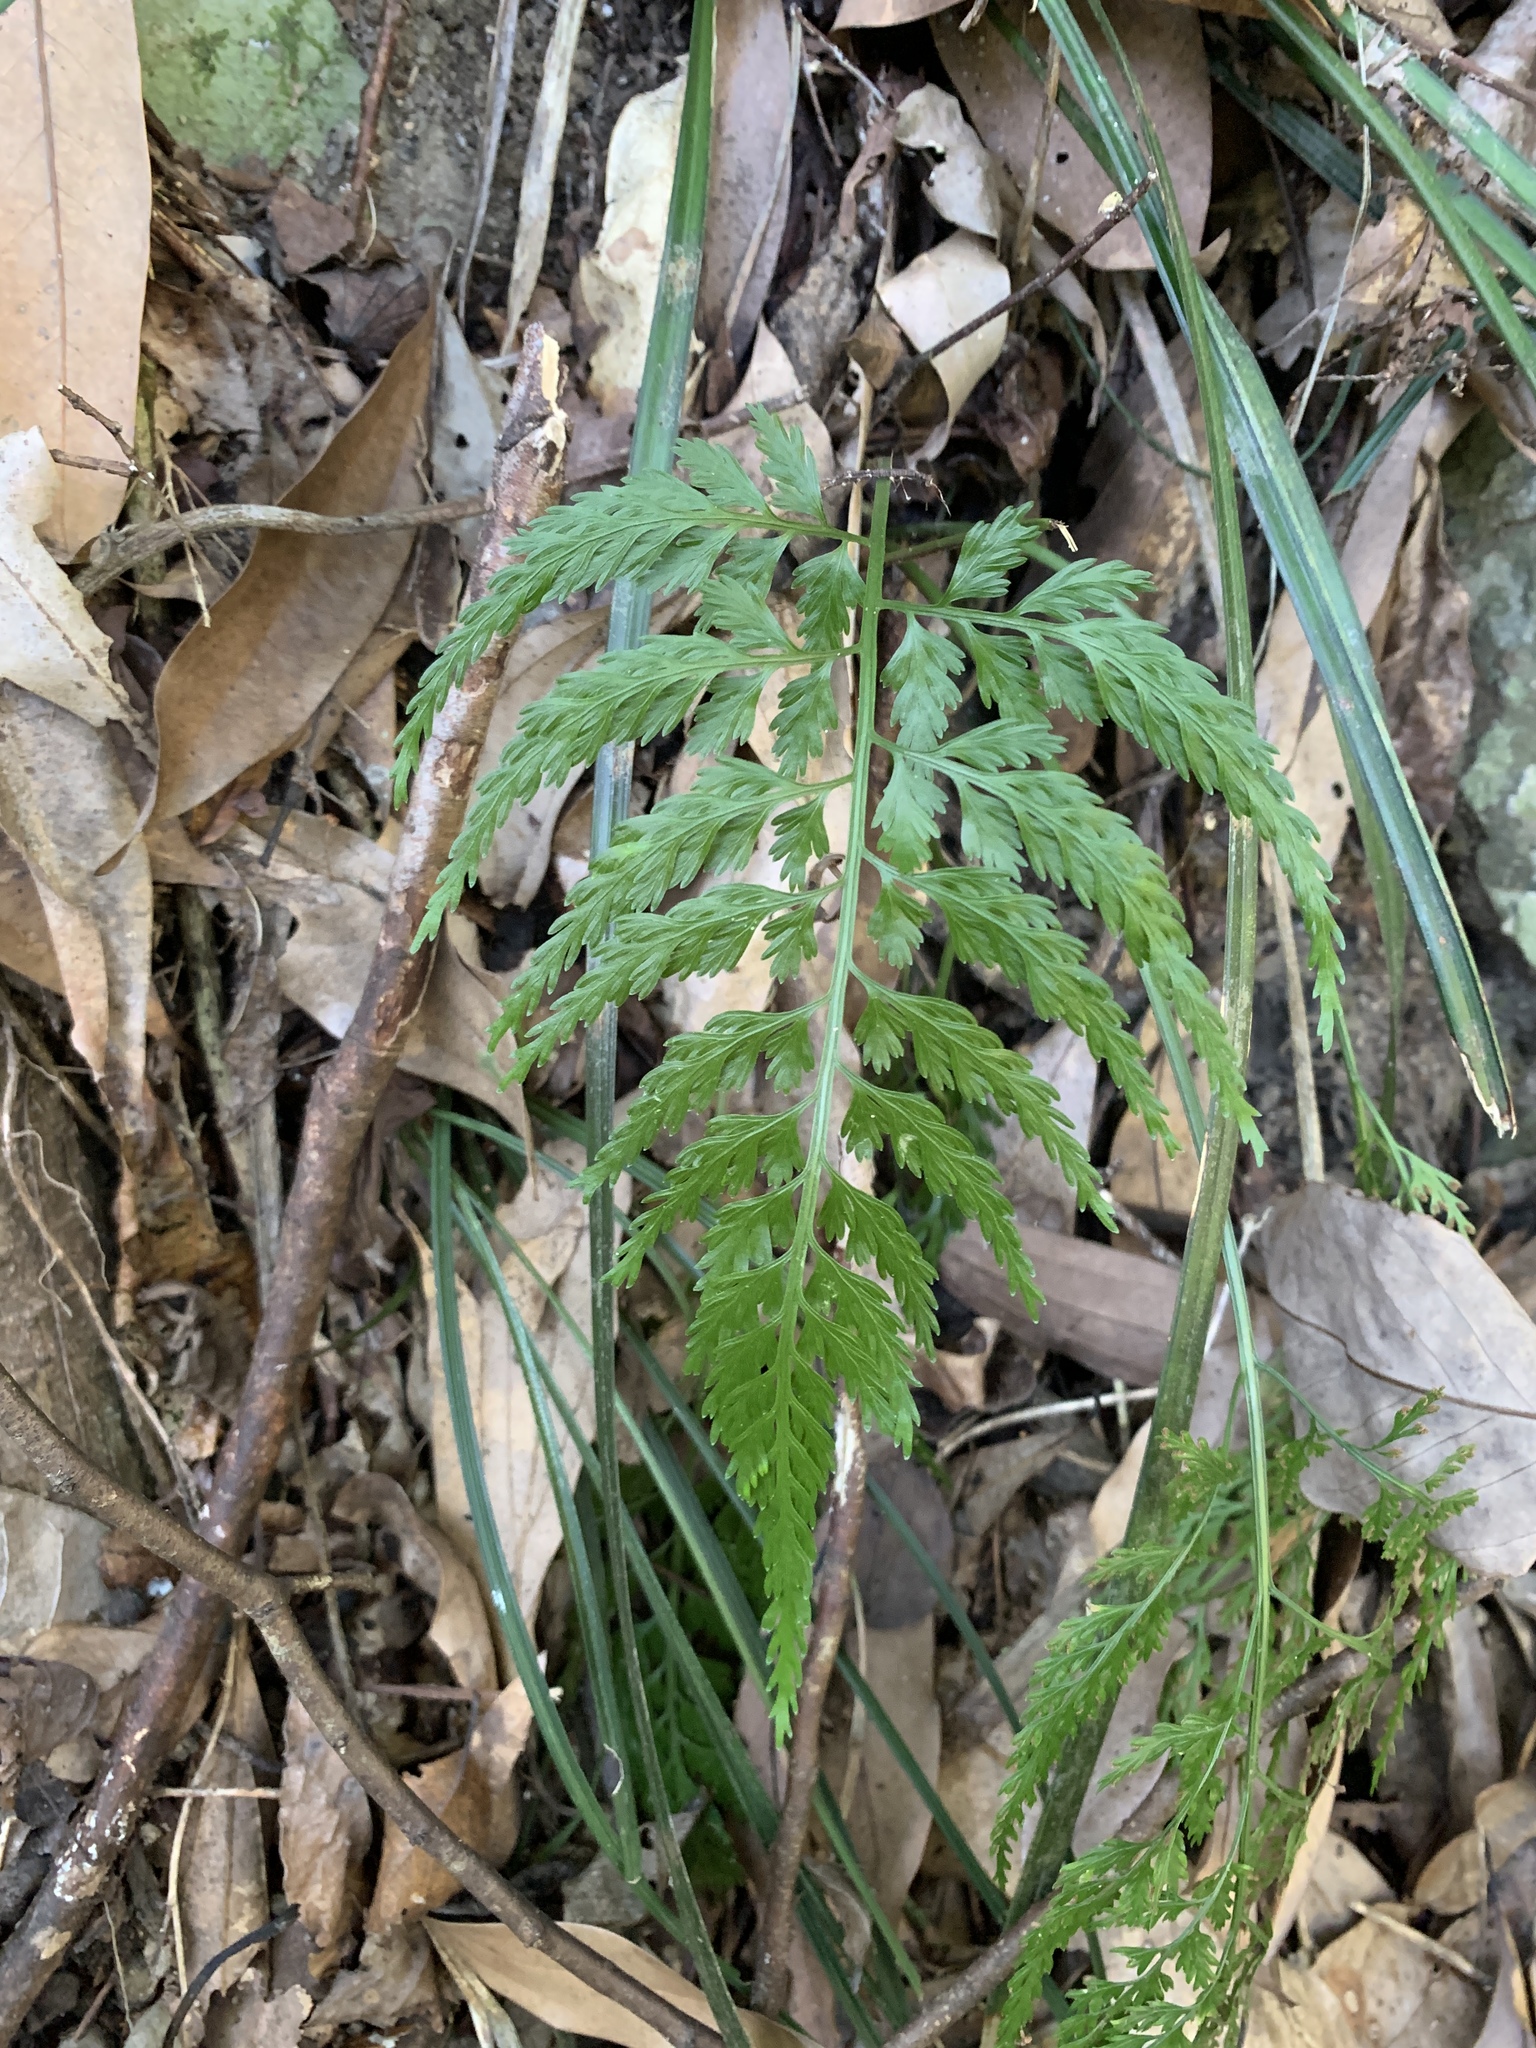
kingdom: Plantae
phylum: Tracheophyta
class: Polypodiopsida
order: Polypodiales
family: Aspleniaceae
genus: Asplenium
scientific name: Asplenium ritoense
